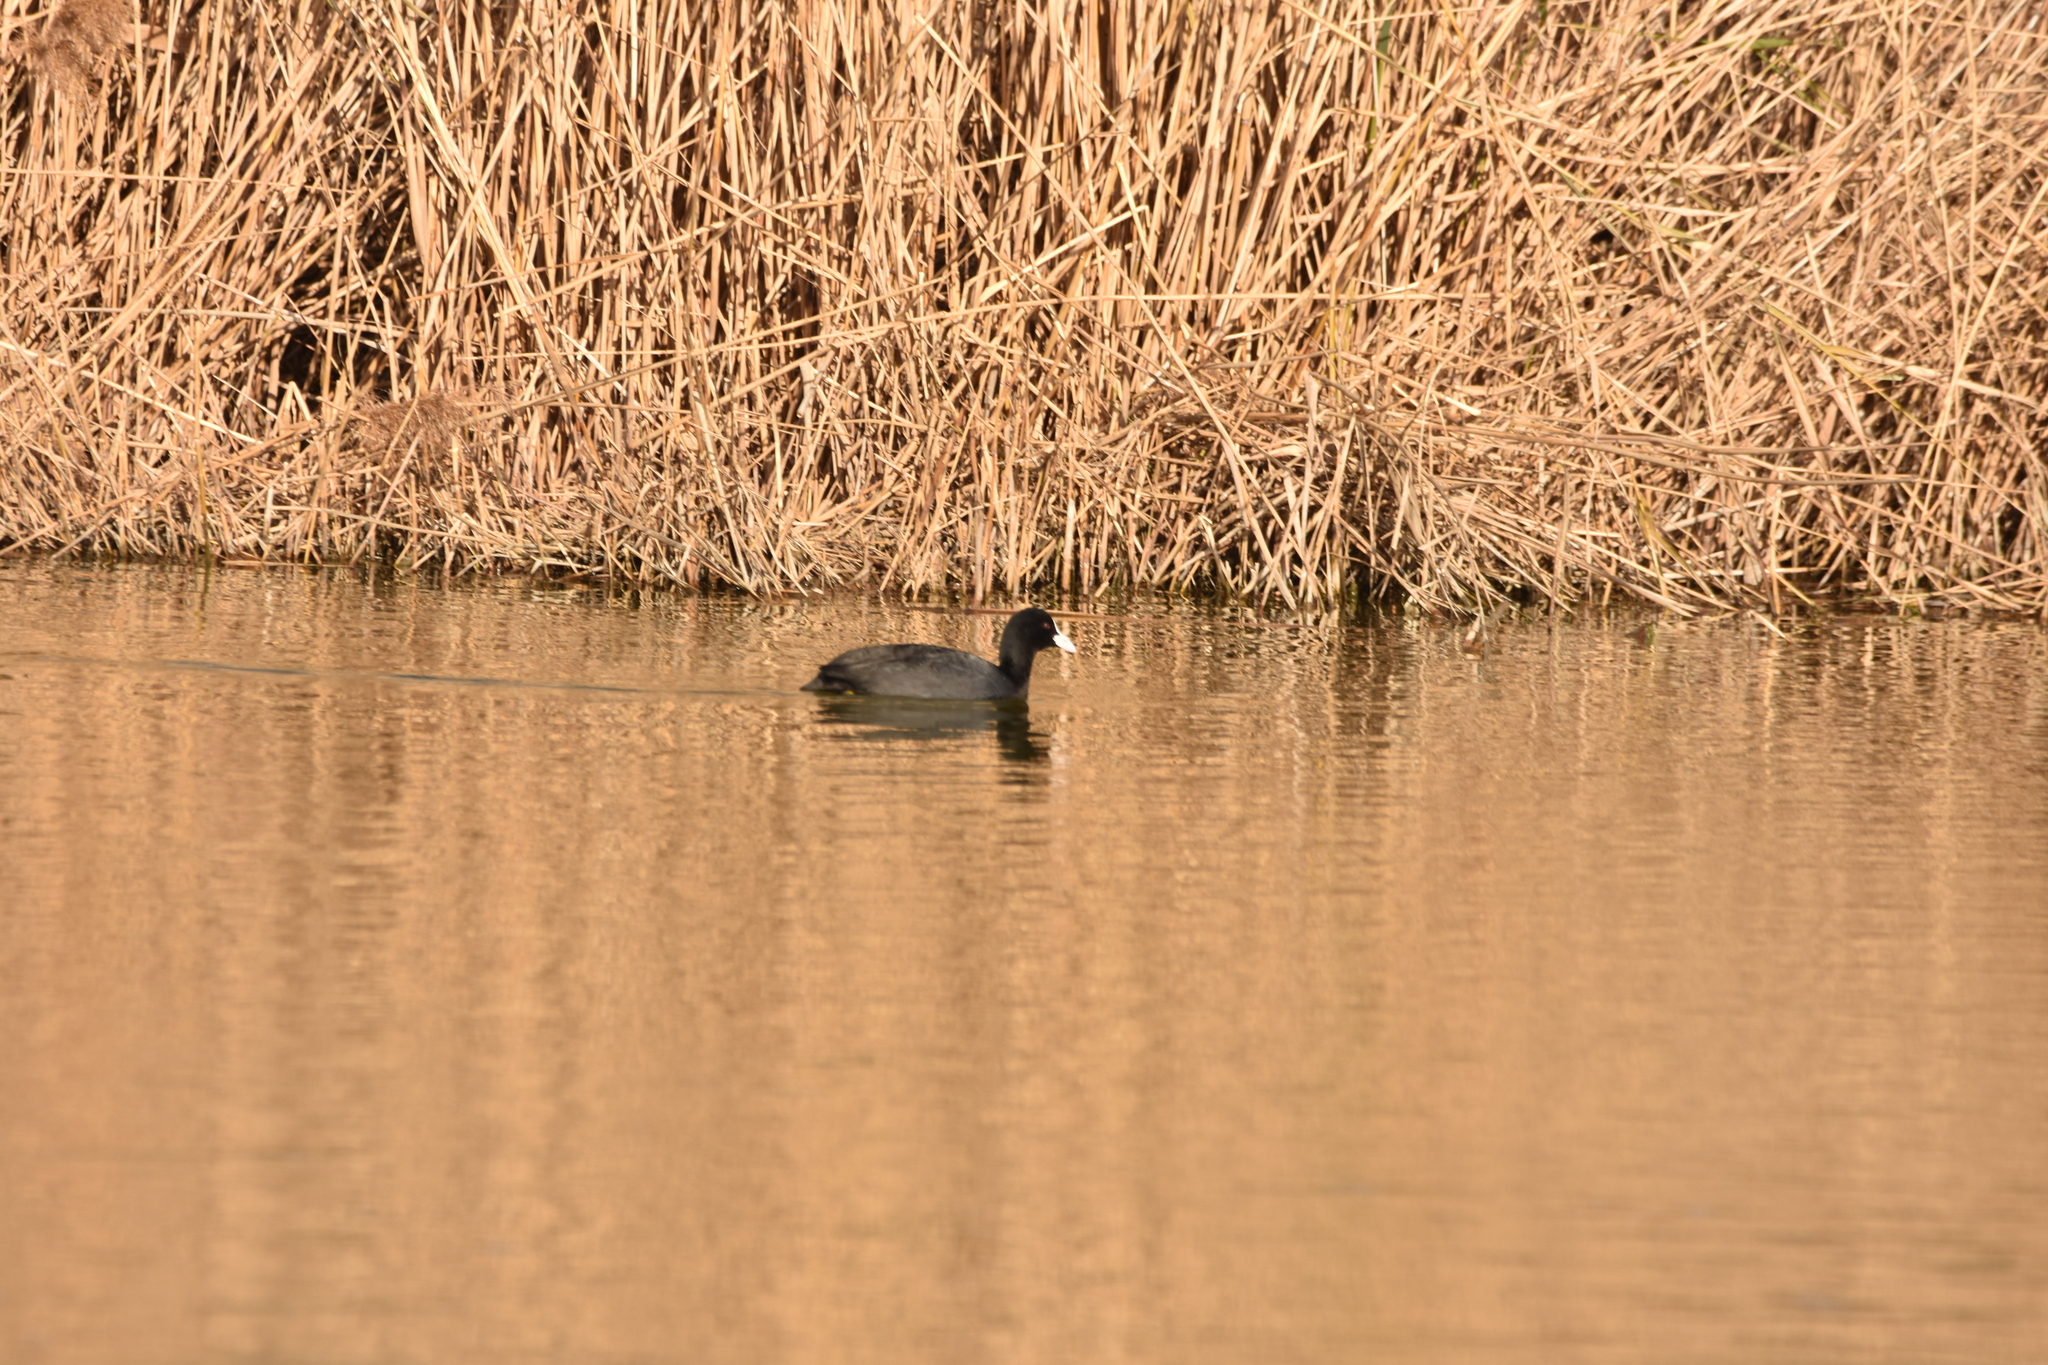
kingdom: Animalia
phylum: Chordata
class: Aves
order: Gruiformes
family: Rallidae
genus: Fulica
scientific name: Fulica atra
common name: Eurasian coot
